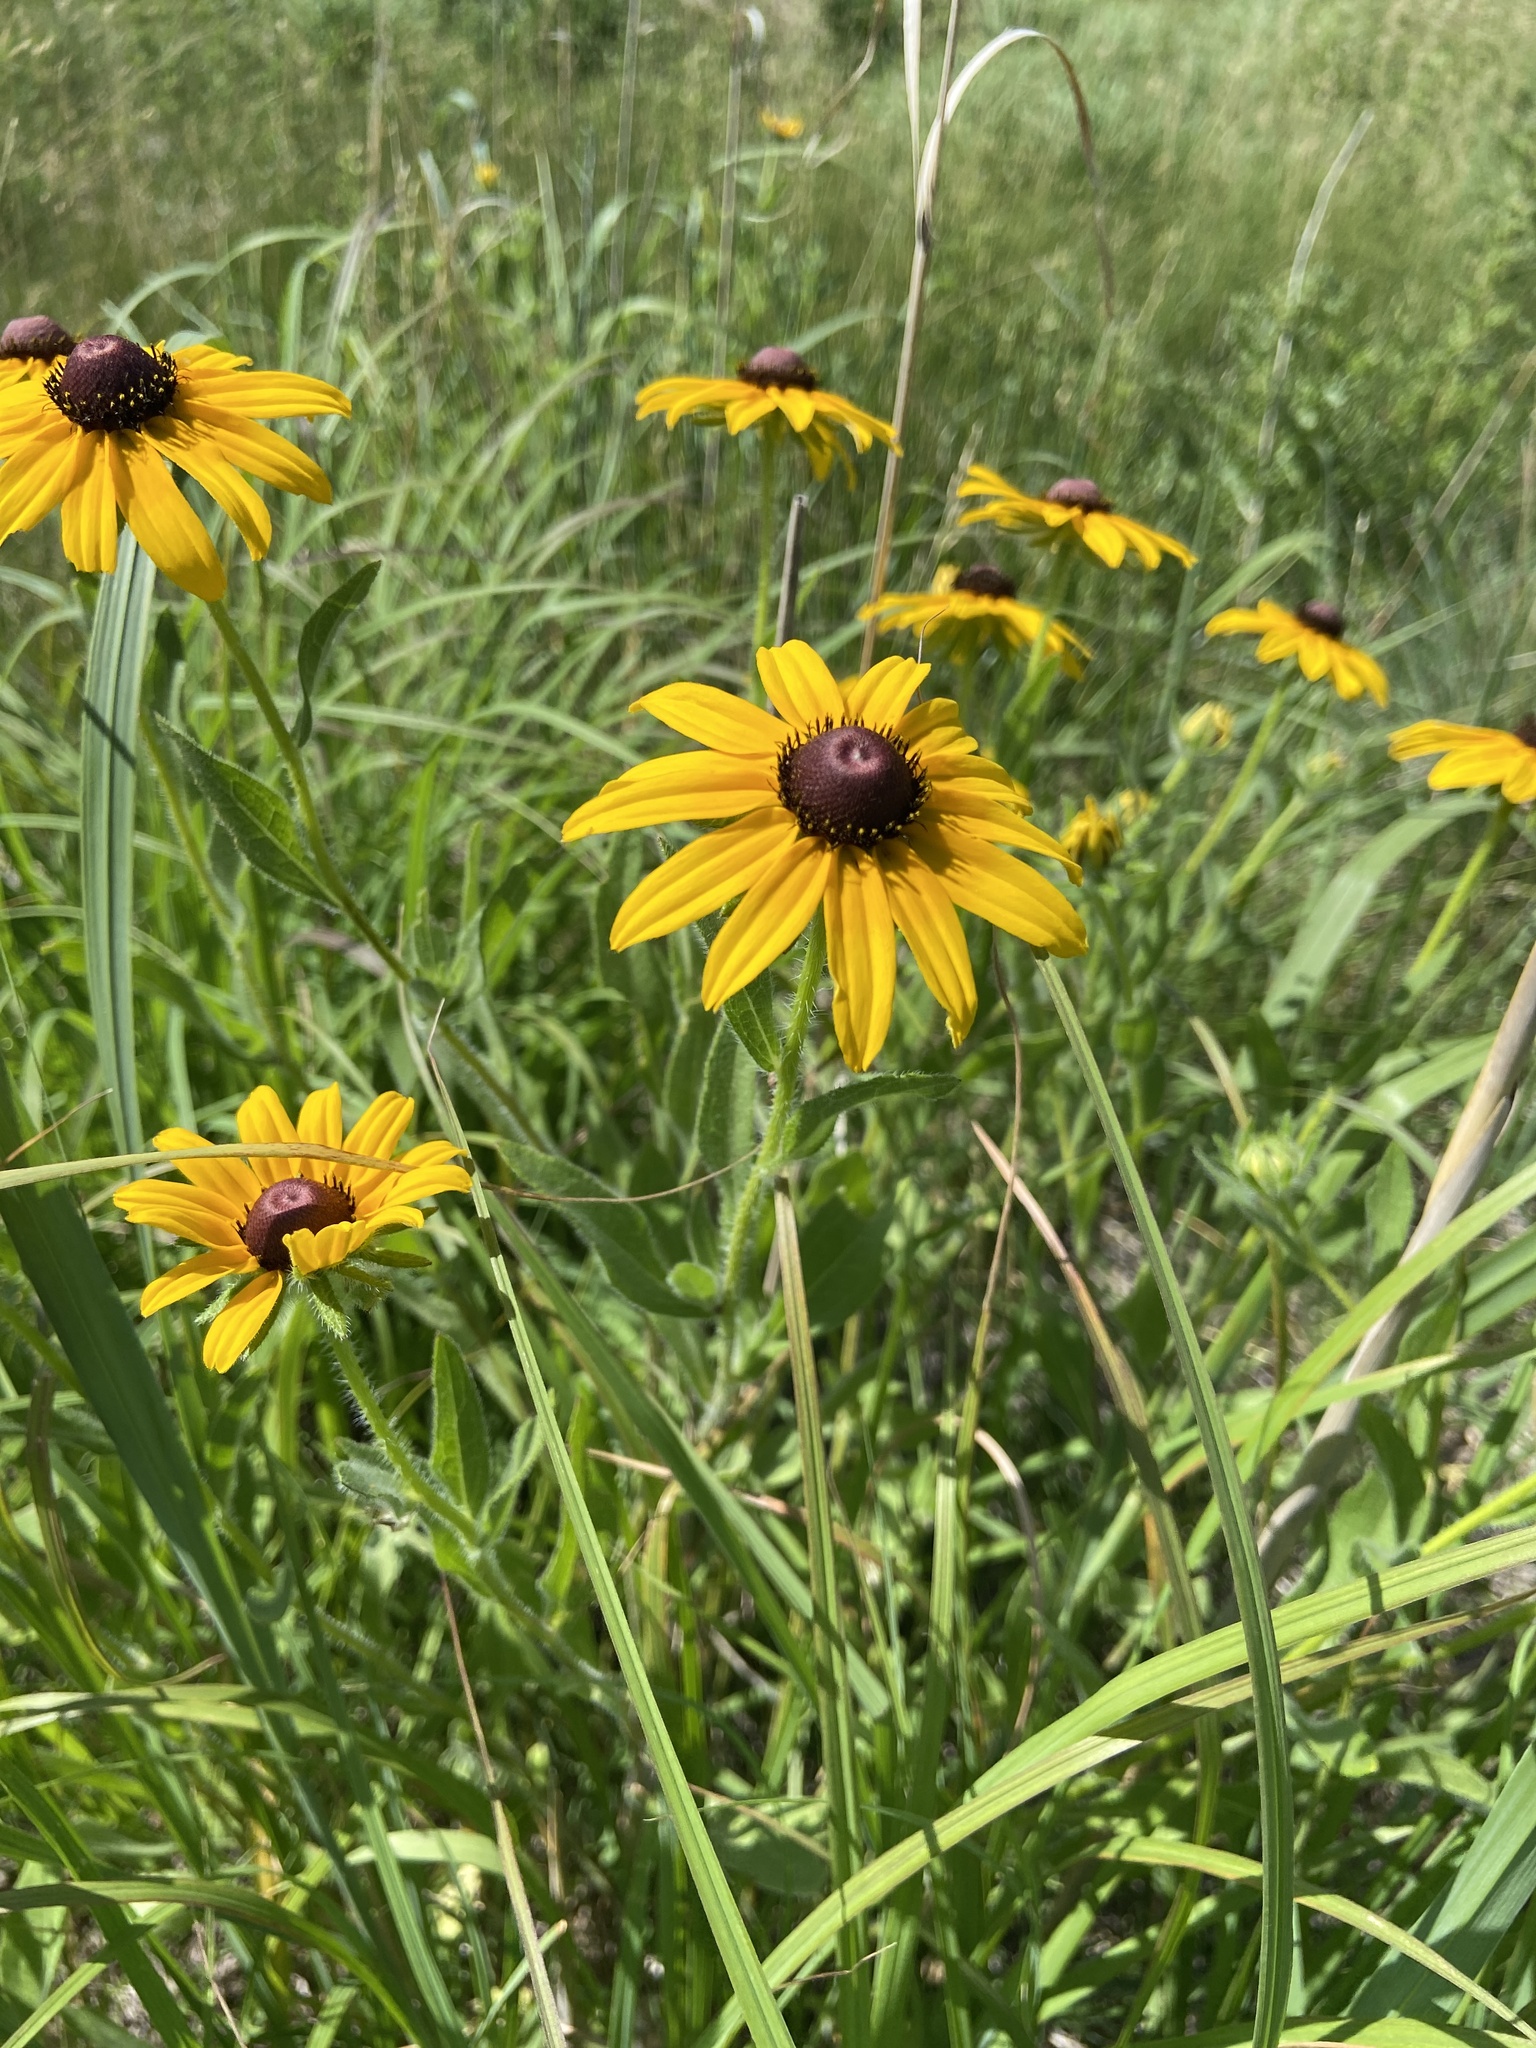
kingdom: Plantae
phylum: Tracheophyta
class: Magnoliopsida
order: Asterales
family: Asteraceae
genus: Rudbeckia
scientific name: Rudbeckia hirta
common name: Black-eyed-susan
